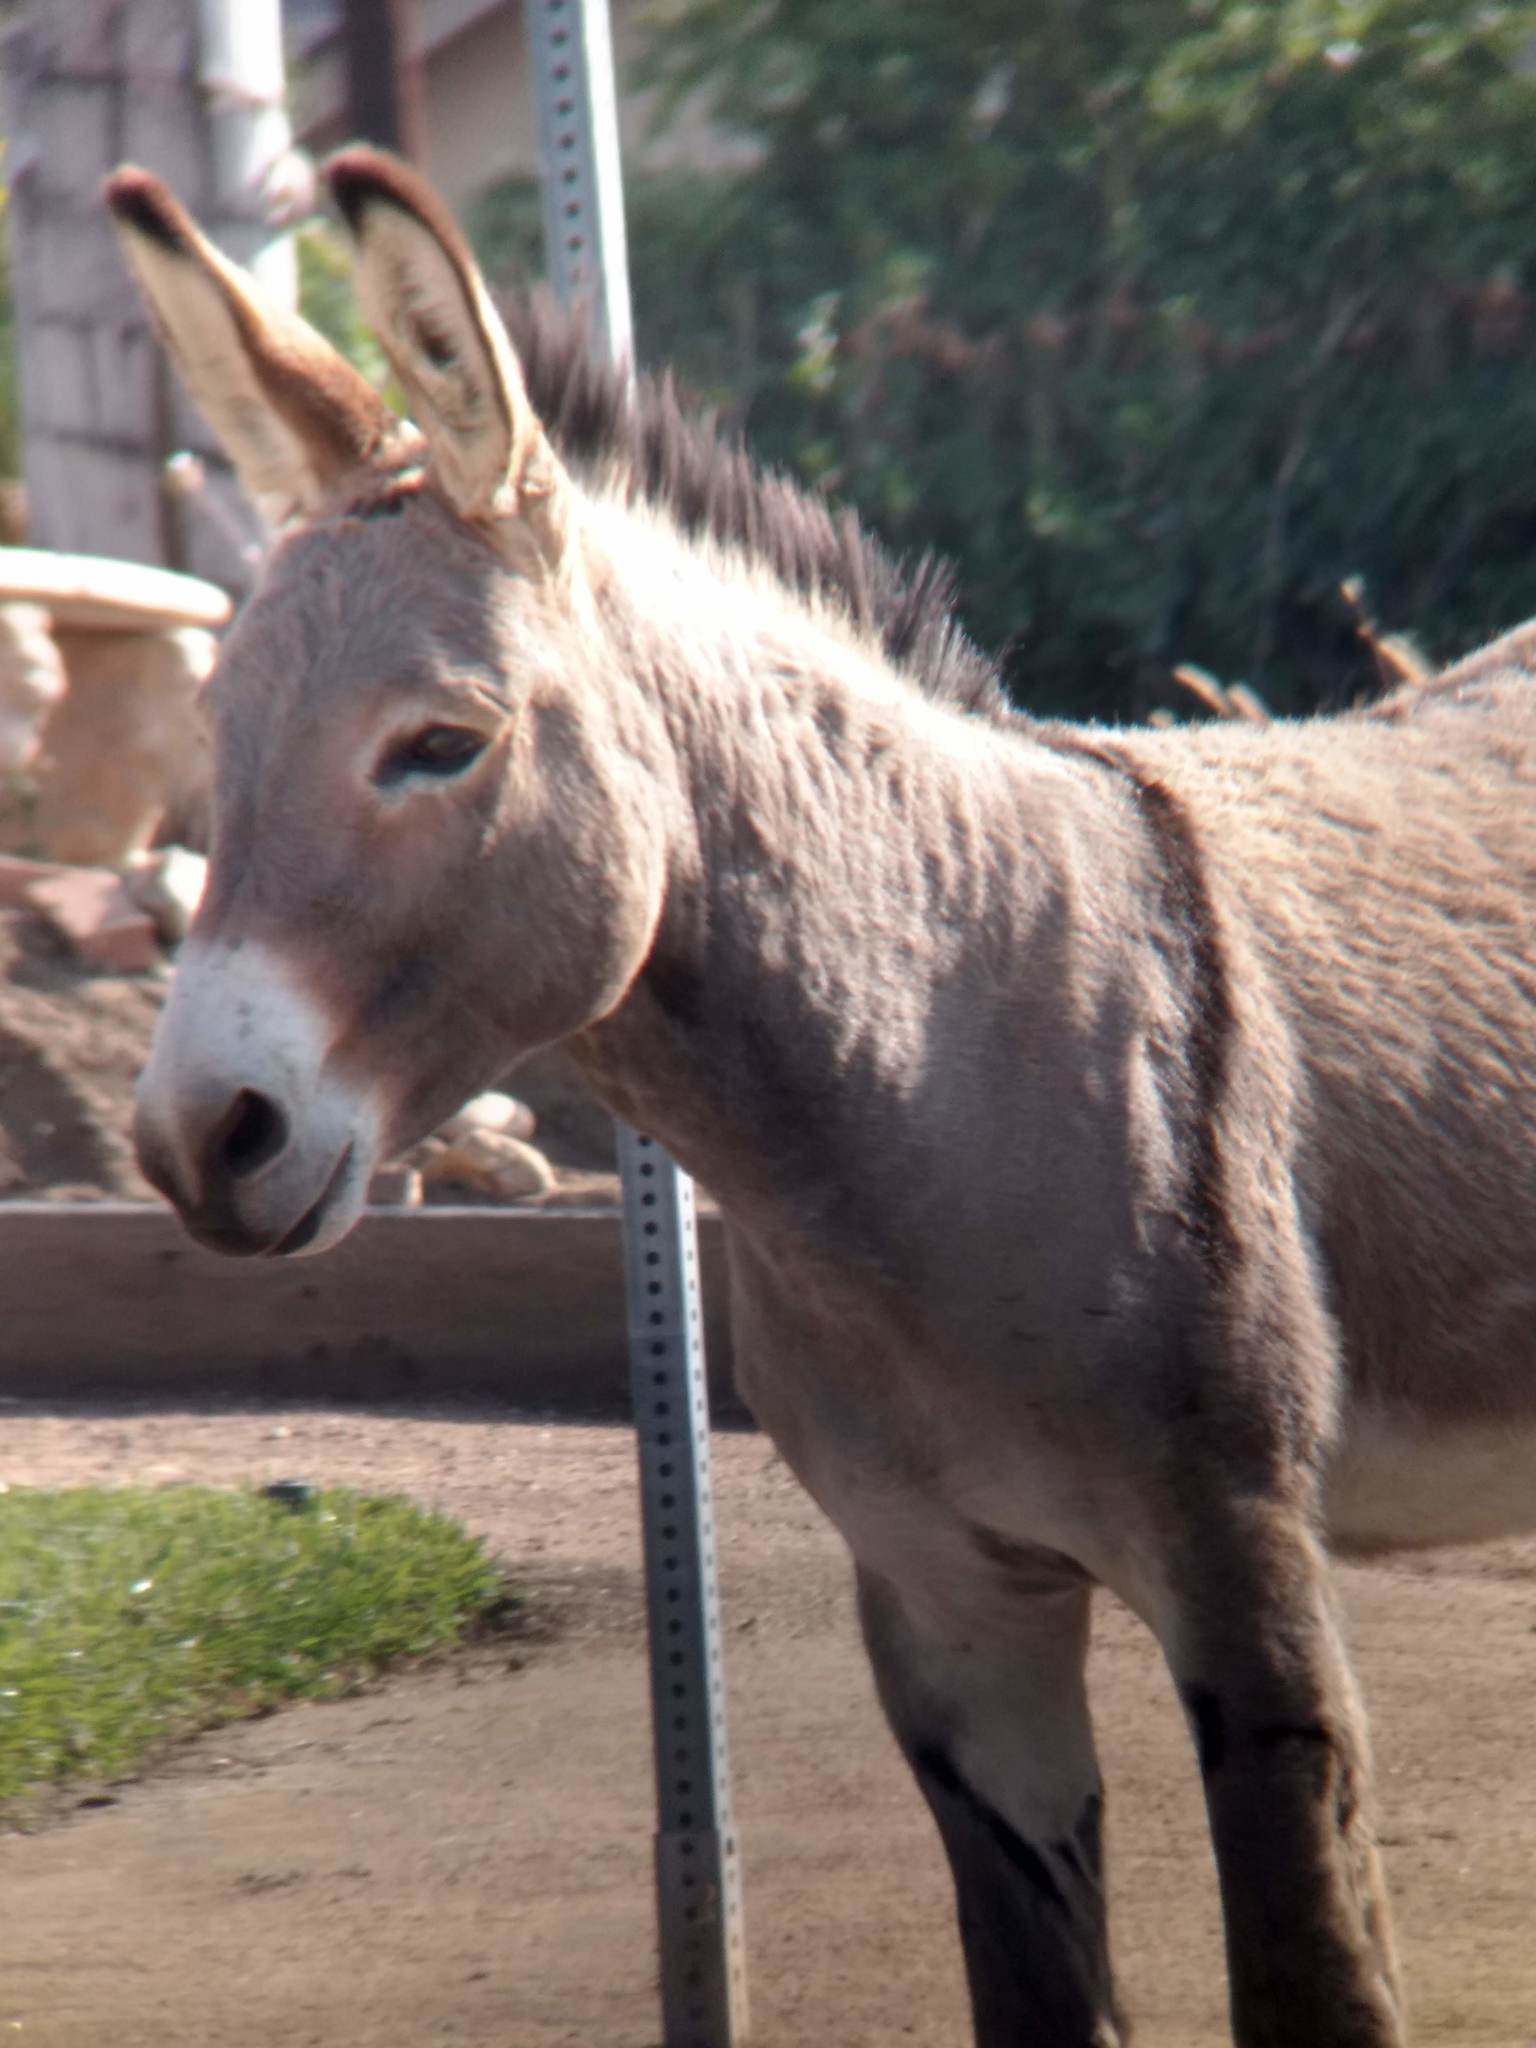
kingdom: Animalia
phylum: Chordata
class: Mammalia
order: Perissodactyla
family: Equidae
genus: Equus
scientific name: Equus asinus
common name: Ass
